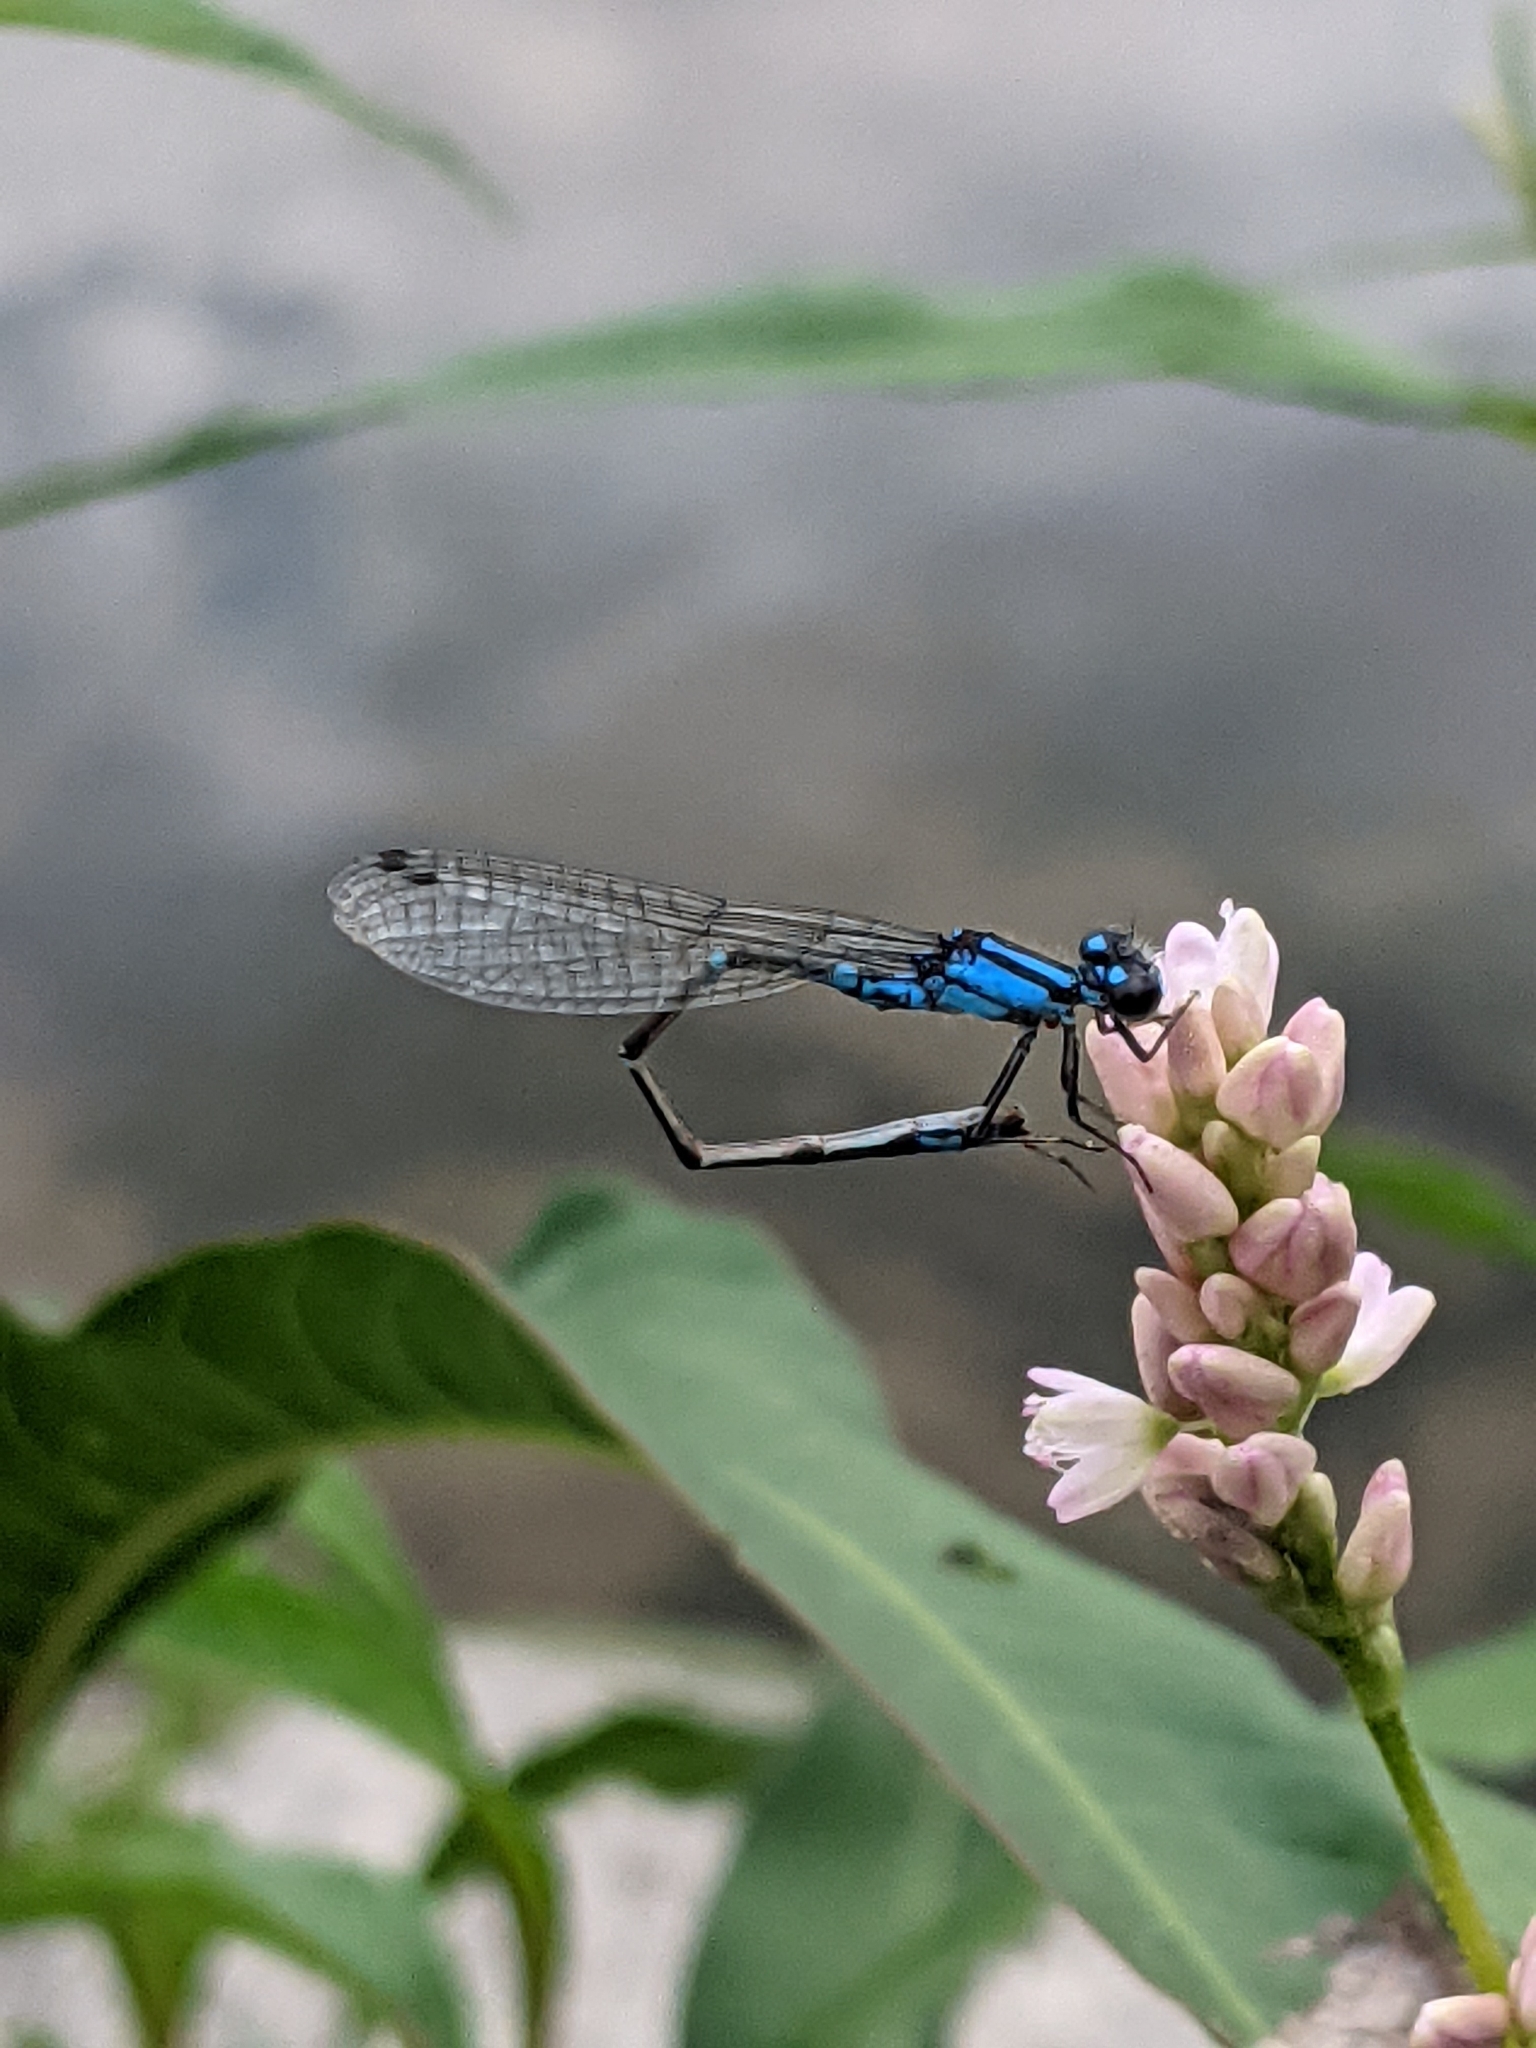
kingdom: Animalia
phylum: Arthropoda
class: Insecta
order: Odonata
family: Coenagrionidae
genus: Enallagma
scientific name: Enallagma geminatum
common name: Skimming bluet
